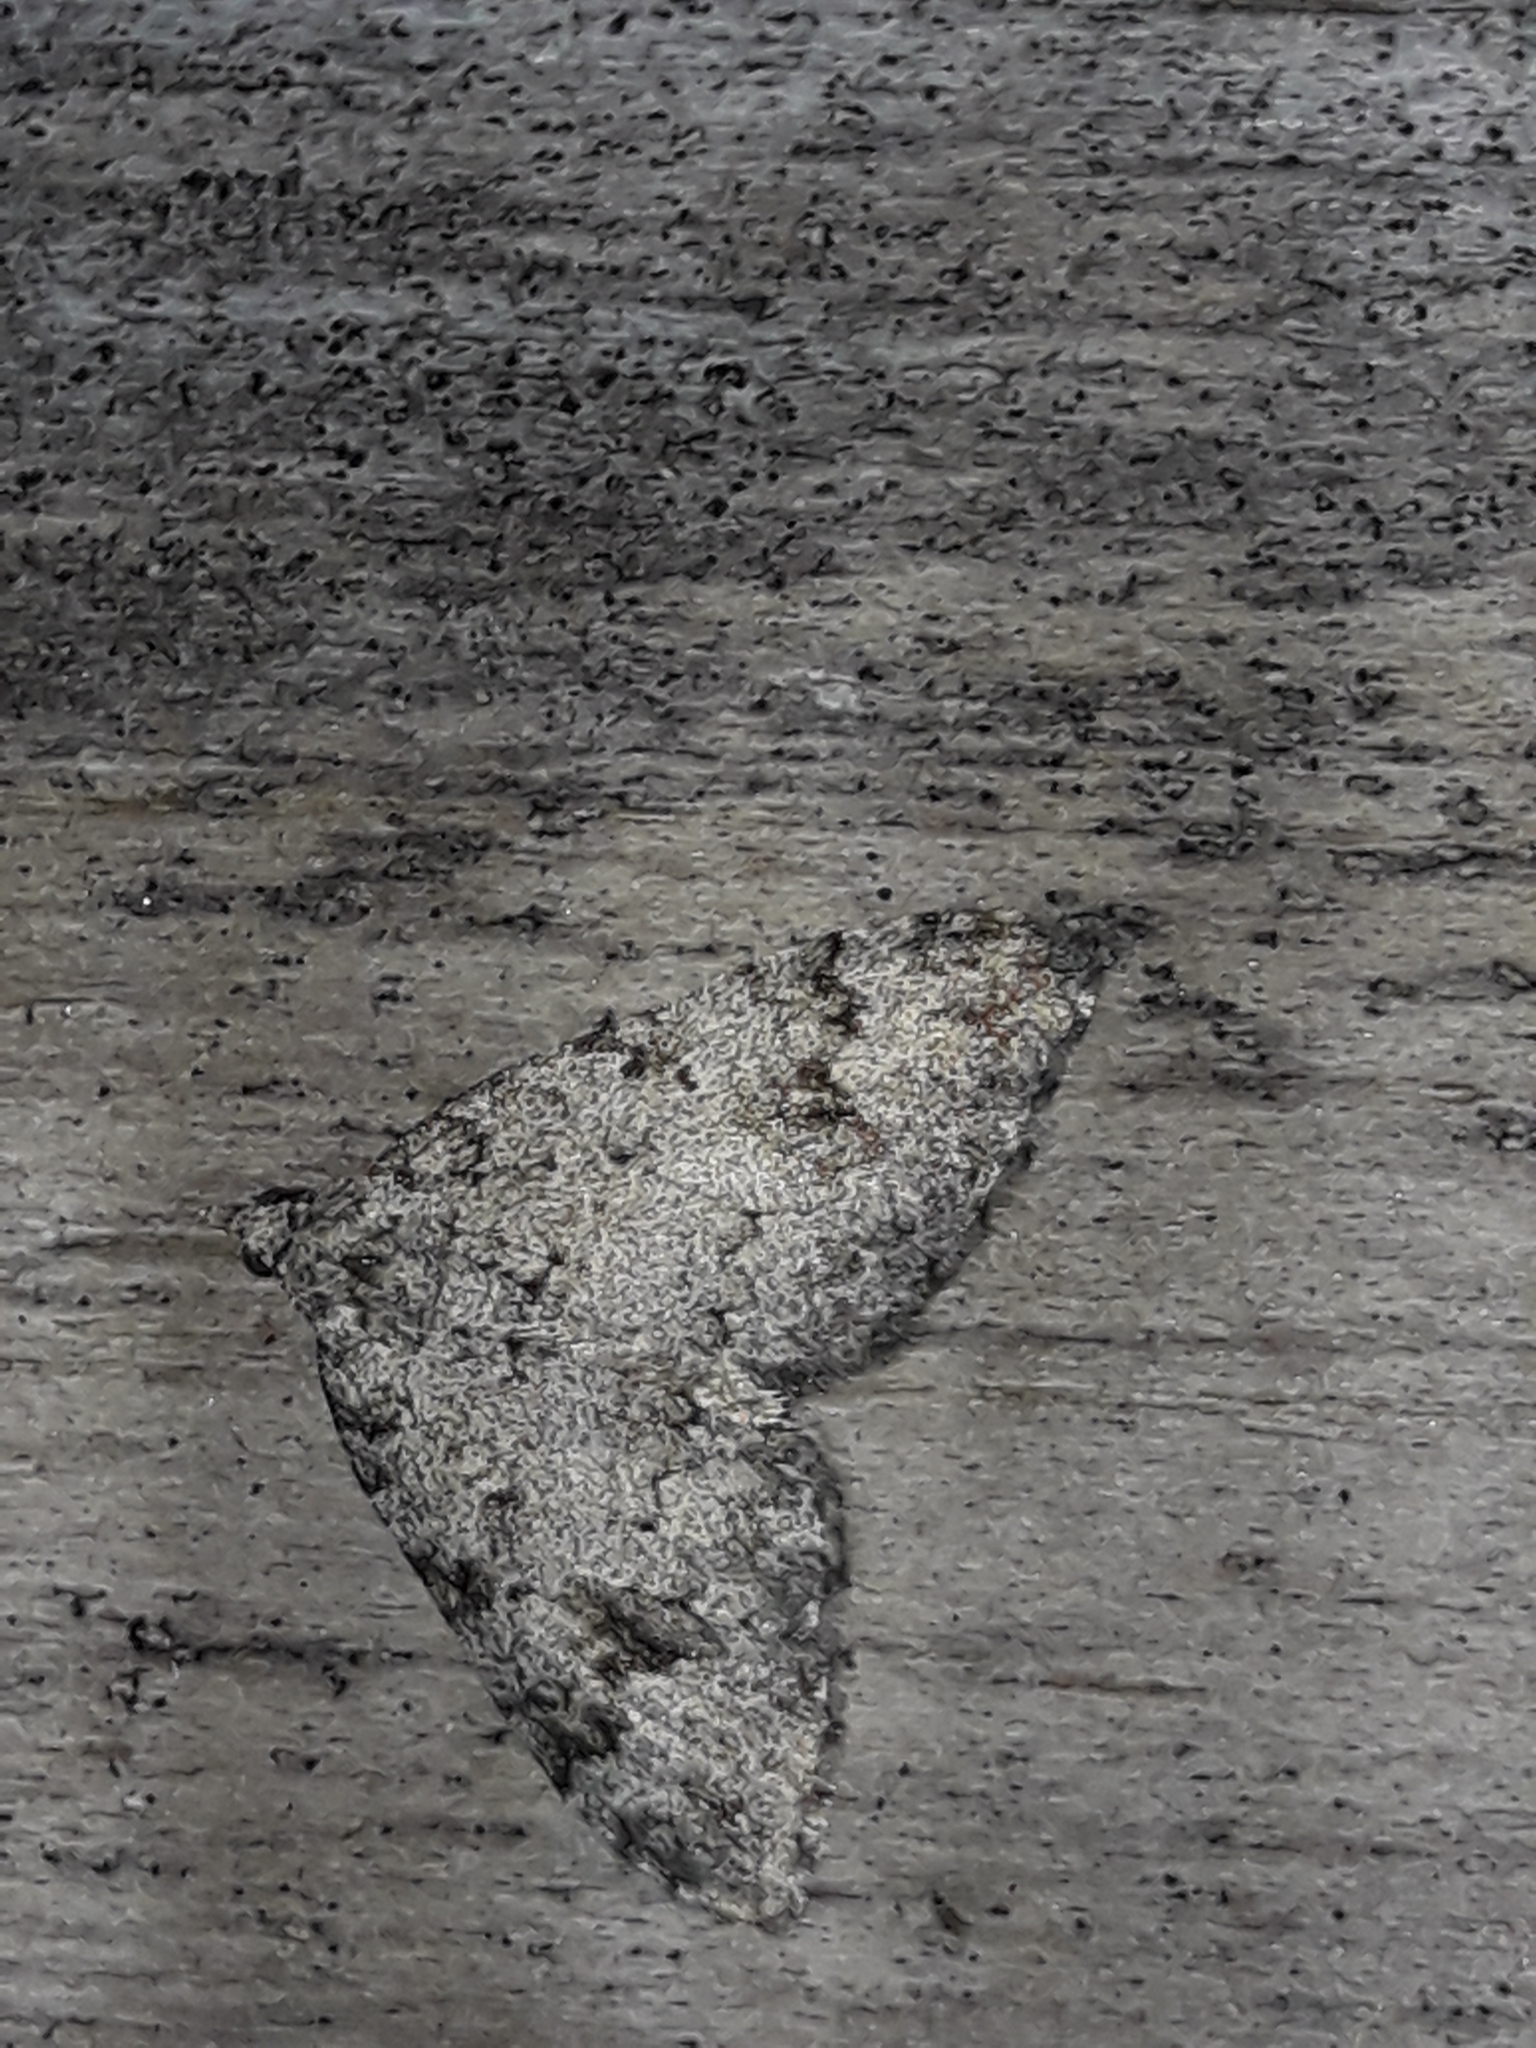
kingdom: Animalia
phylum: Arthropoda
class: Insecta
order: Lepidoptera
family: Geometridae
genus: Helastia
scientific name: Helastia cinerearia
